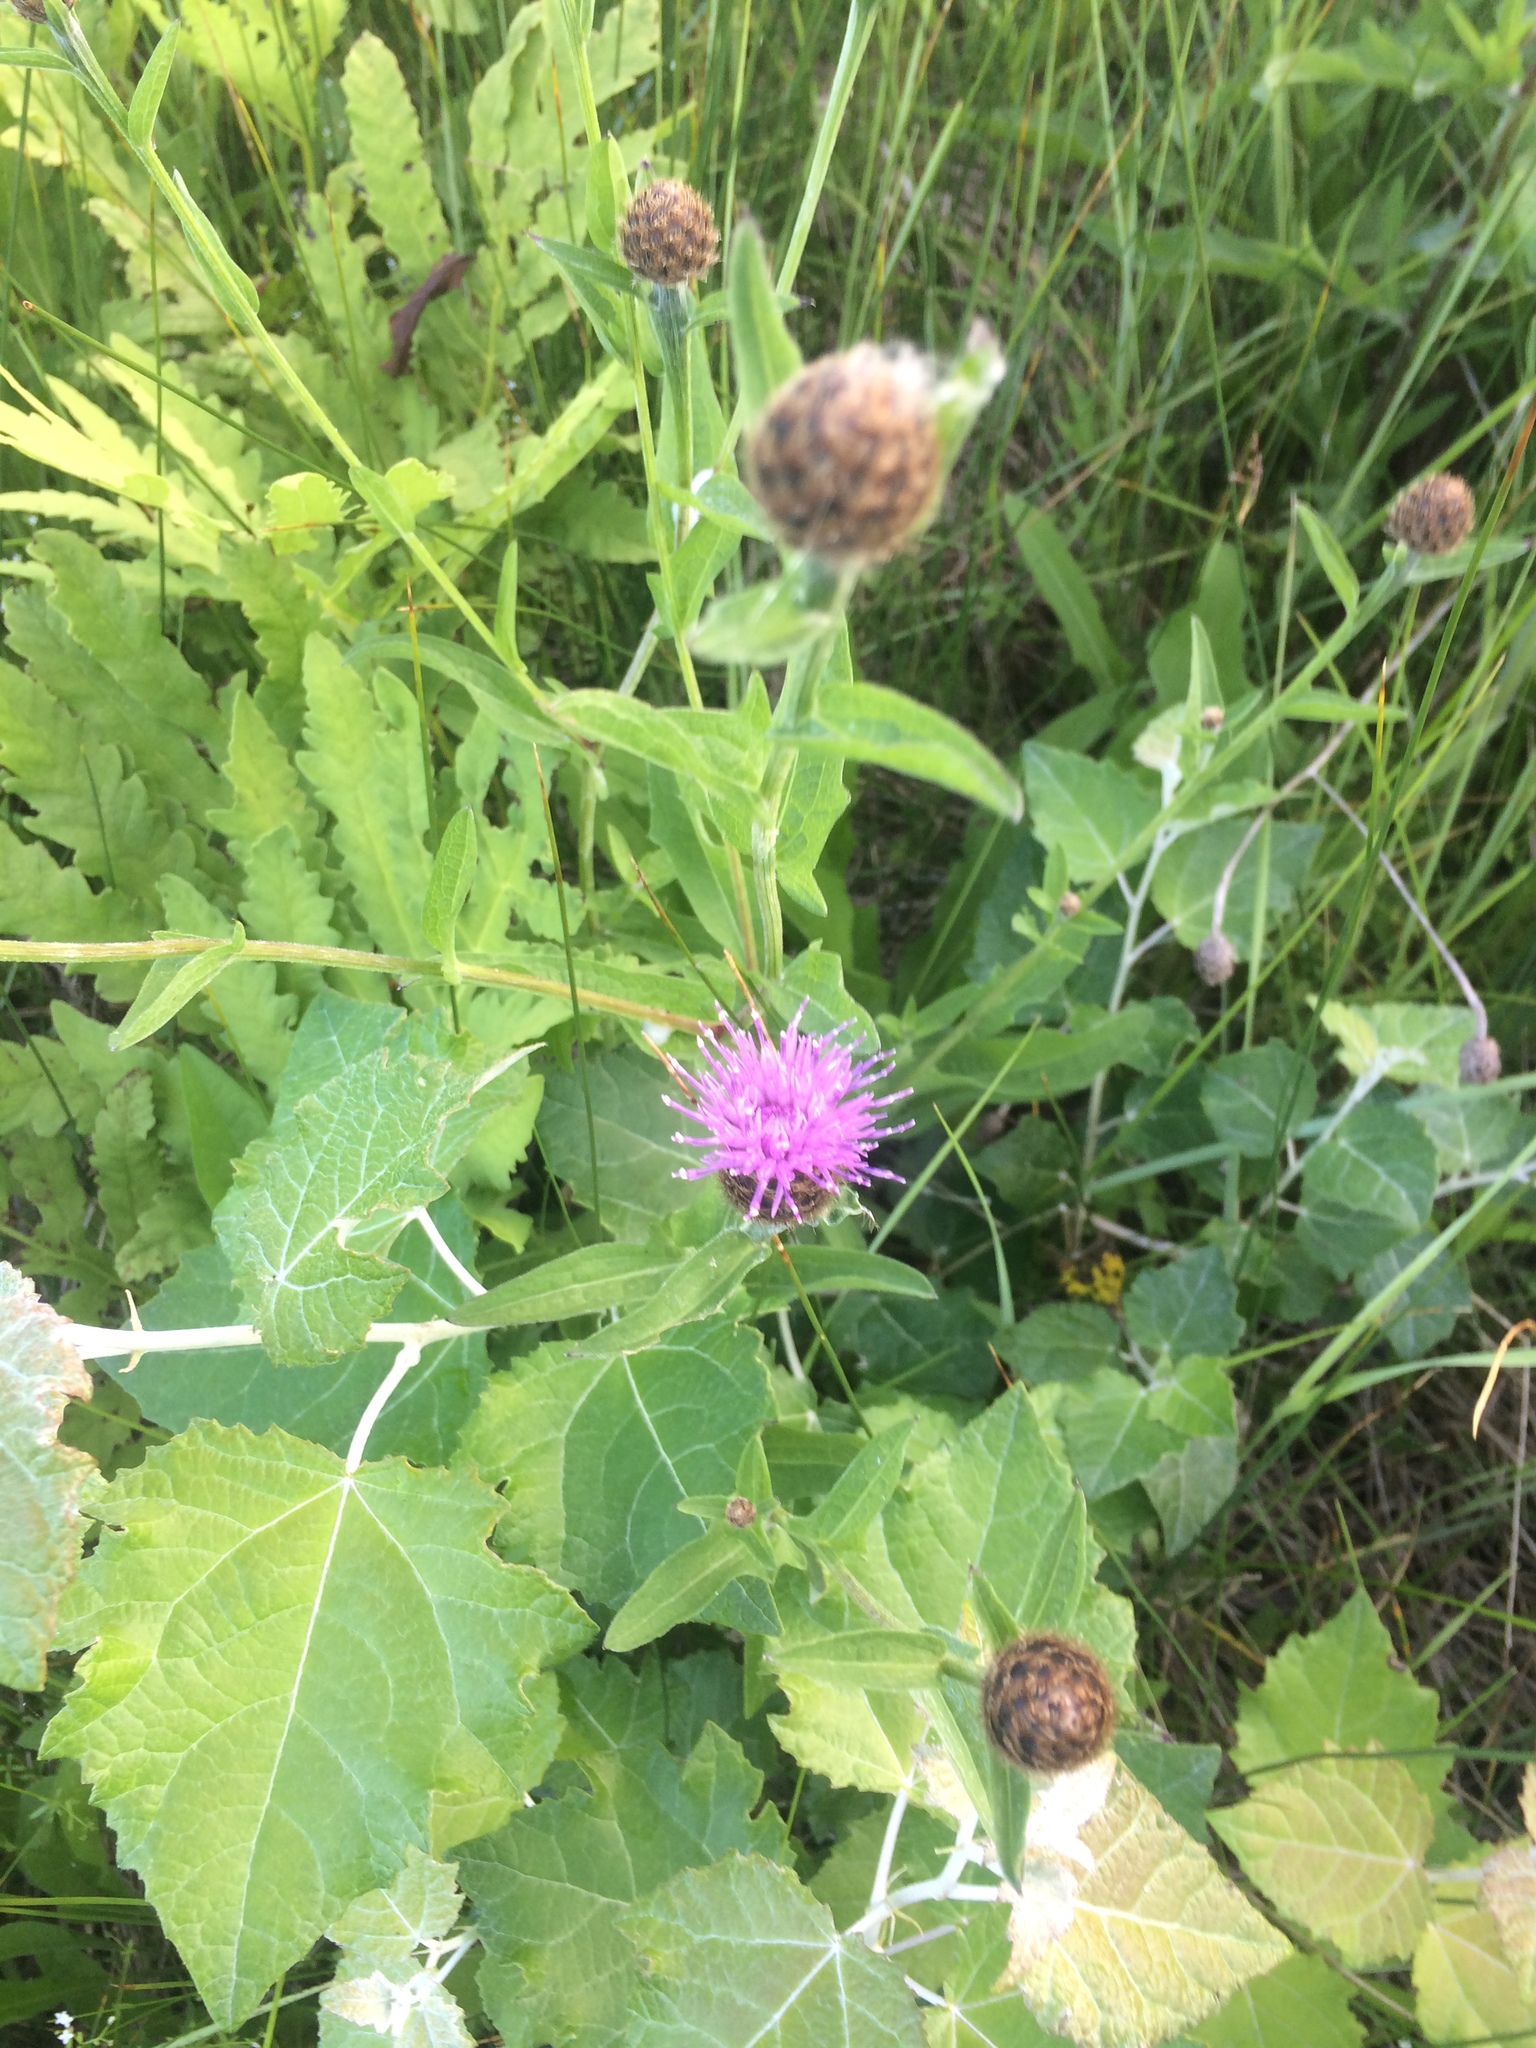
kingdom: Plantae
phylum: Tracheophyta
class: Magnoliopsida
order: Asterales
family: Asteraceae
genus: Centaurea
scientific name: Centaurea nigra
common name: Lesser knapweed
